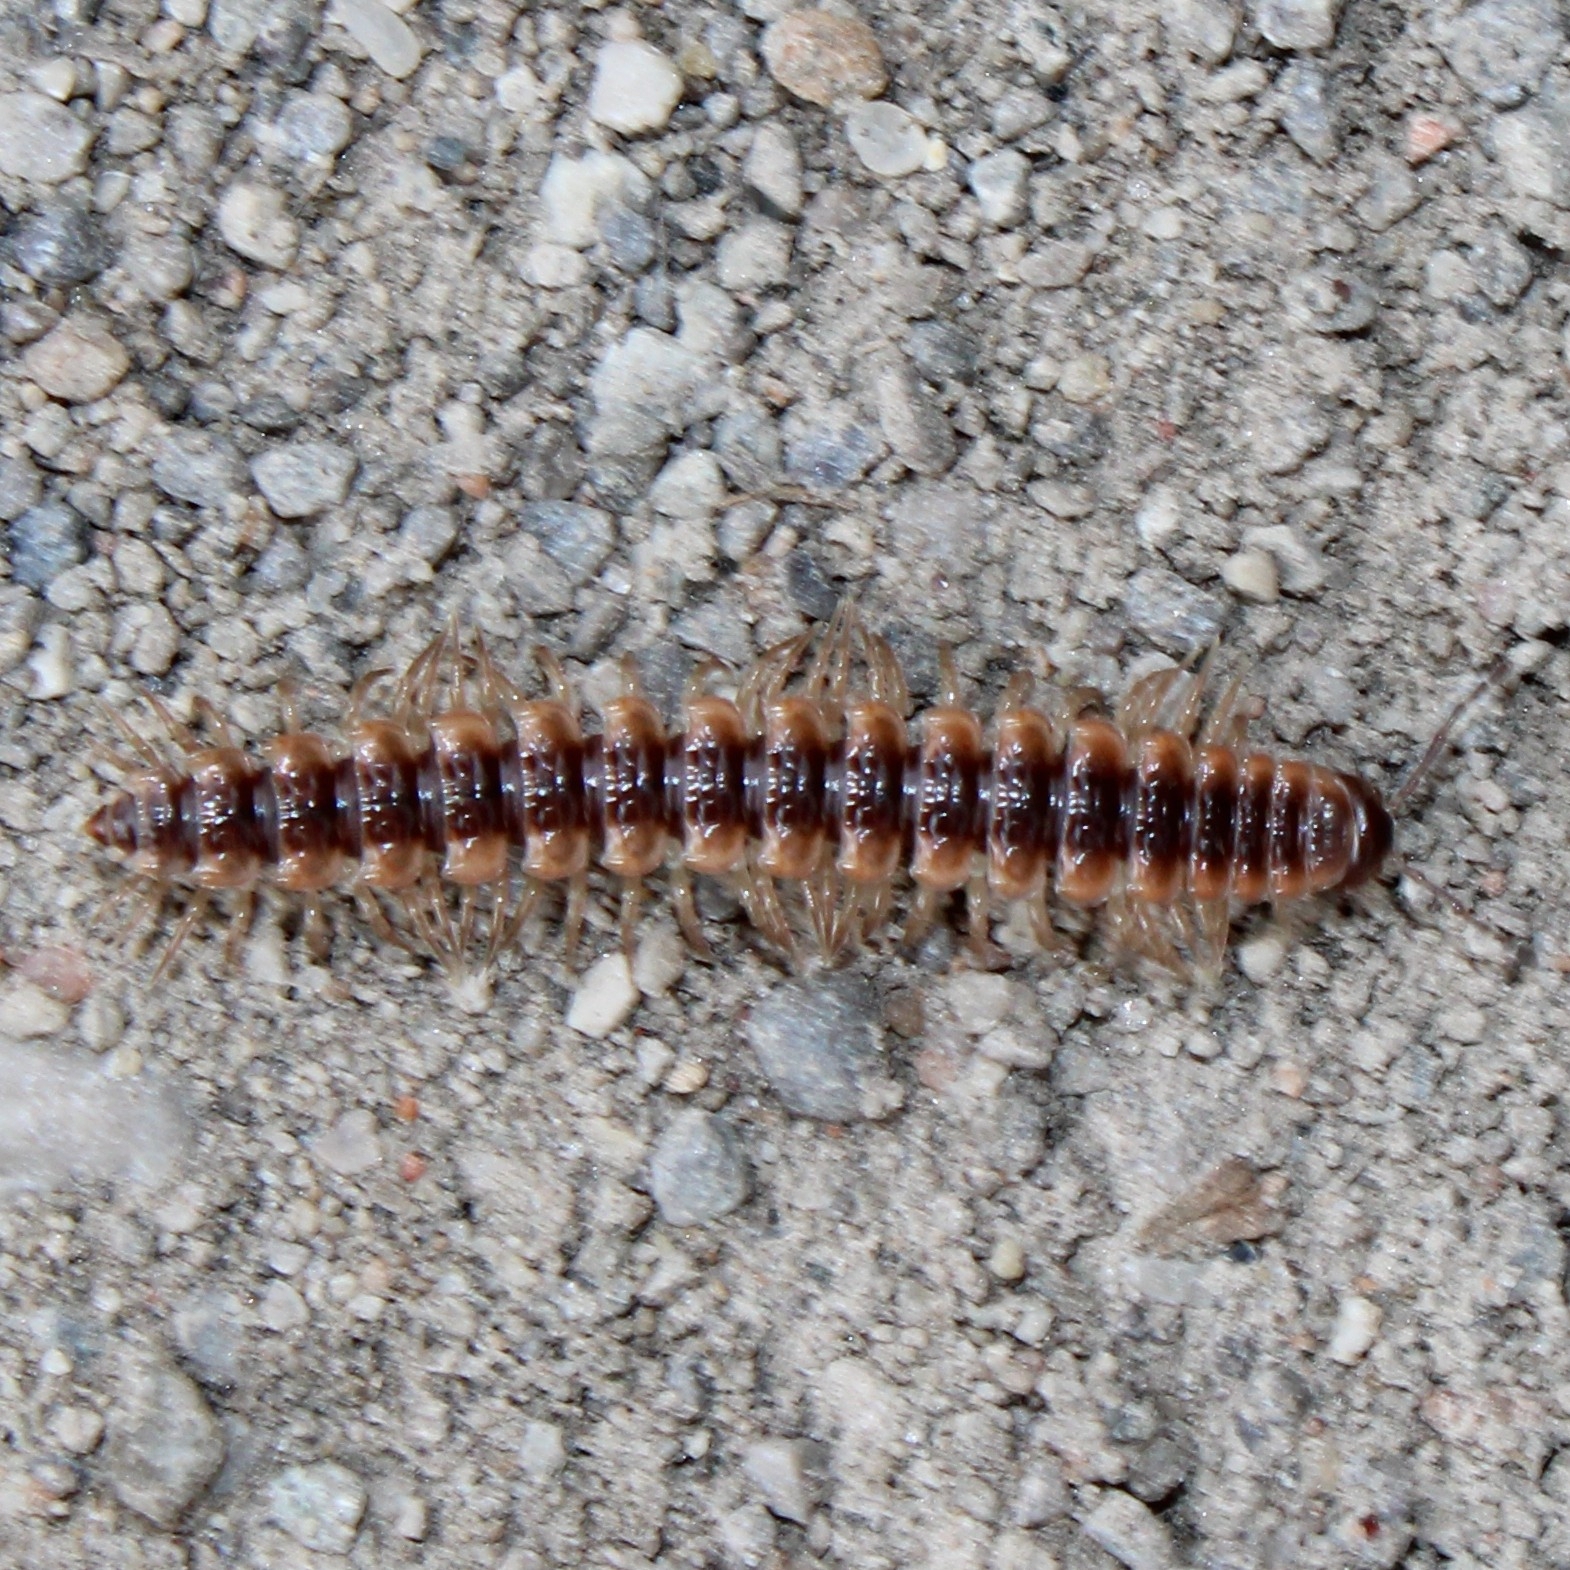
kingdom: Animalia
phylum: Arthropoda
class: Diplopoda
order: Polydesmida
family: Polydesmidae
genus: Pseudopolydesmus
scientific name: Pseudopolydesmus canadensis
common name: Canadian flat-back millipede
